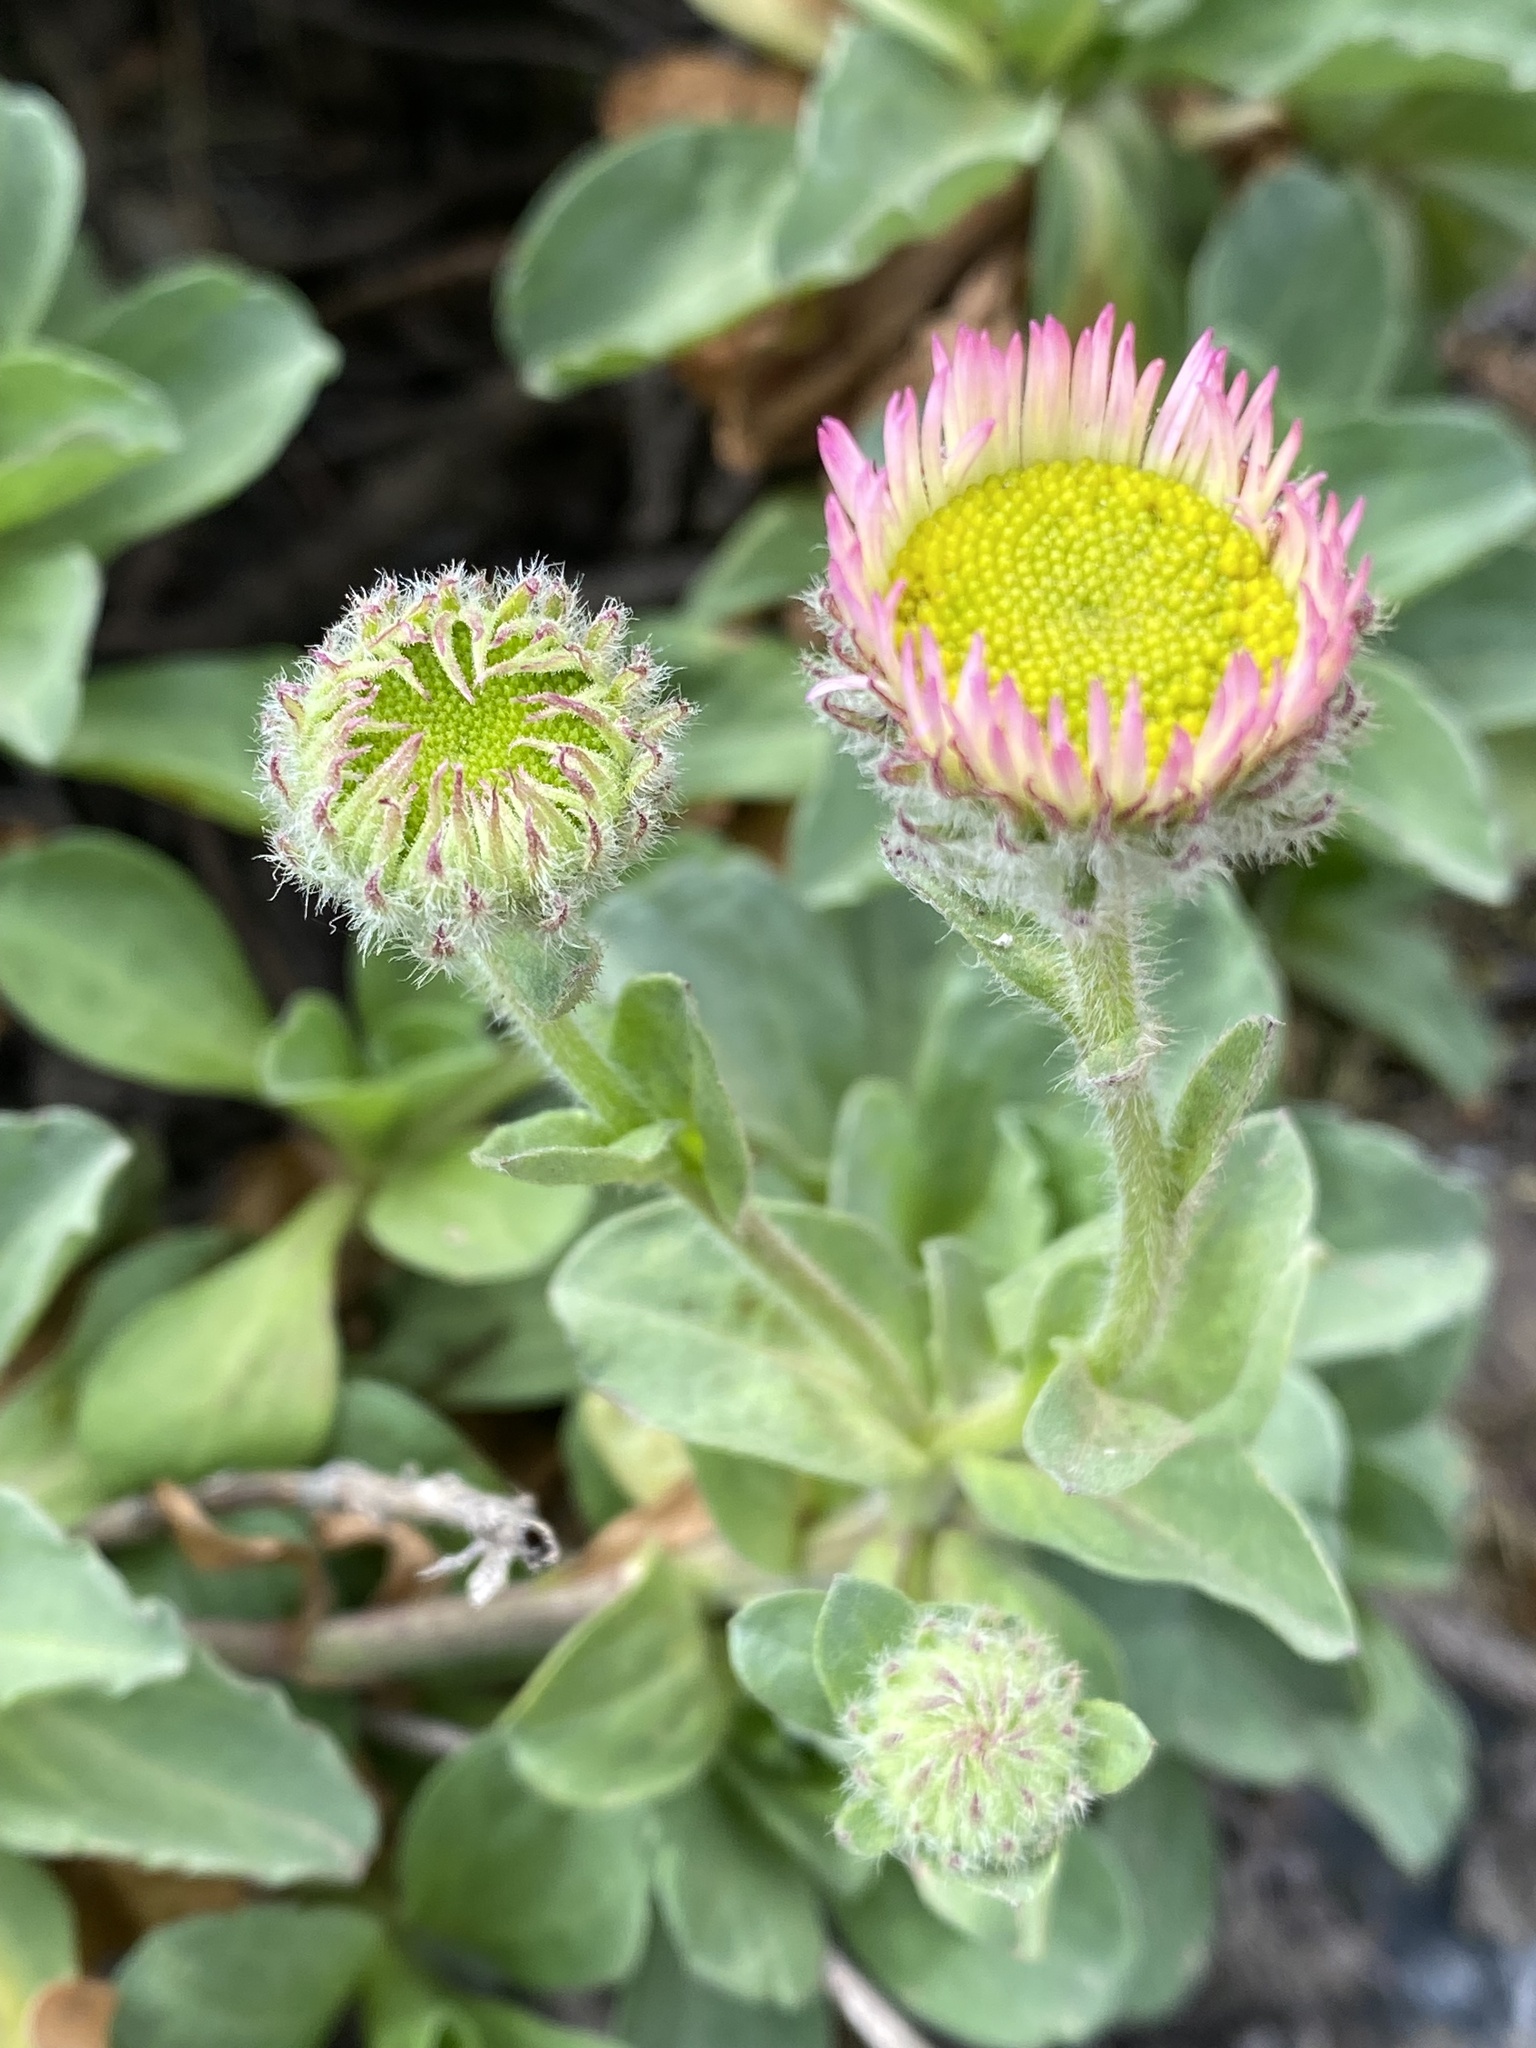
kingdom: Plantae
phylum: Tracheophyta
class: Magnoliopsida
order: Asterales
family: Asteraceae
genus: Erigeron
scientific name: Erigeron glaucus
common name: Seaside daisy
